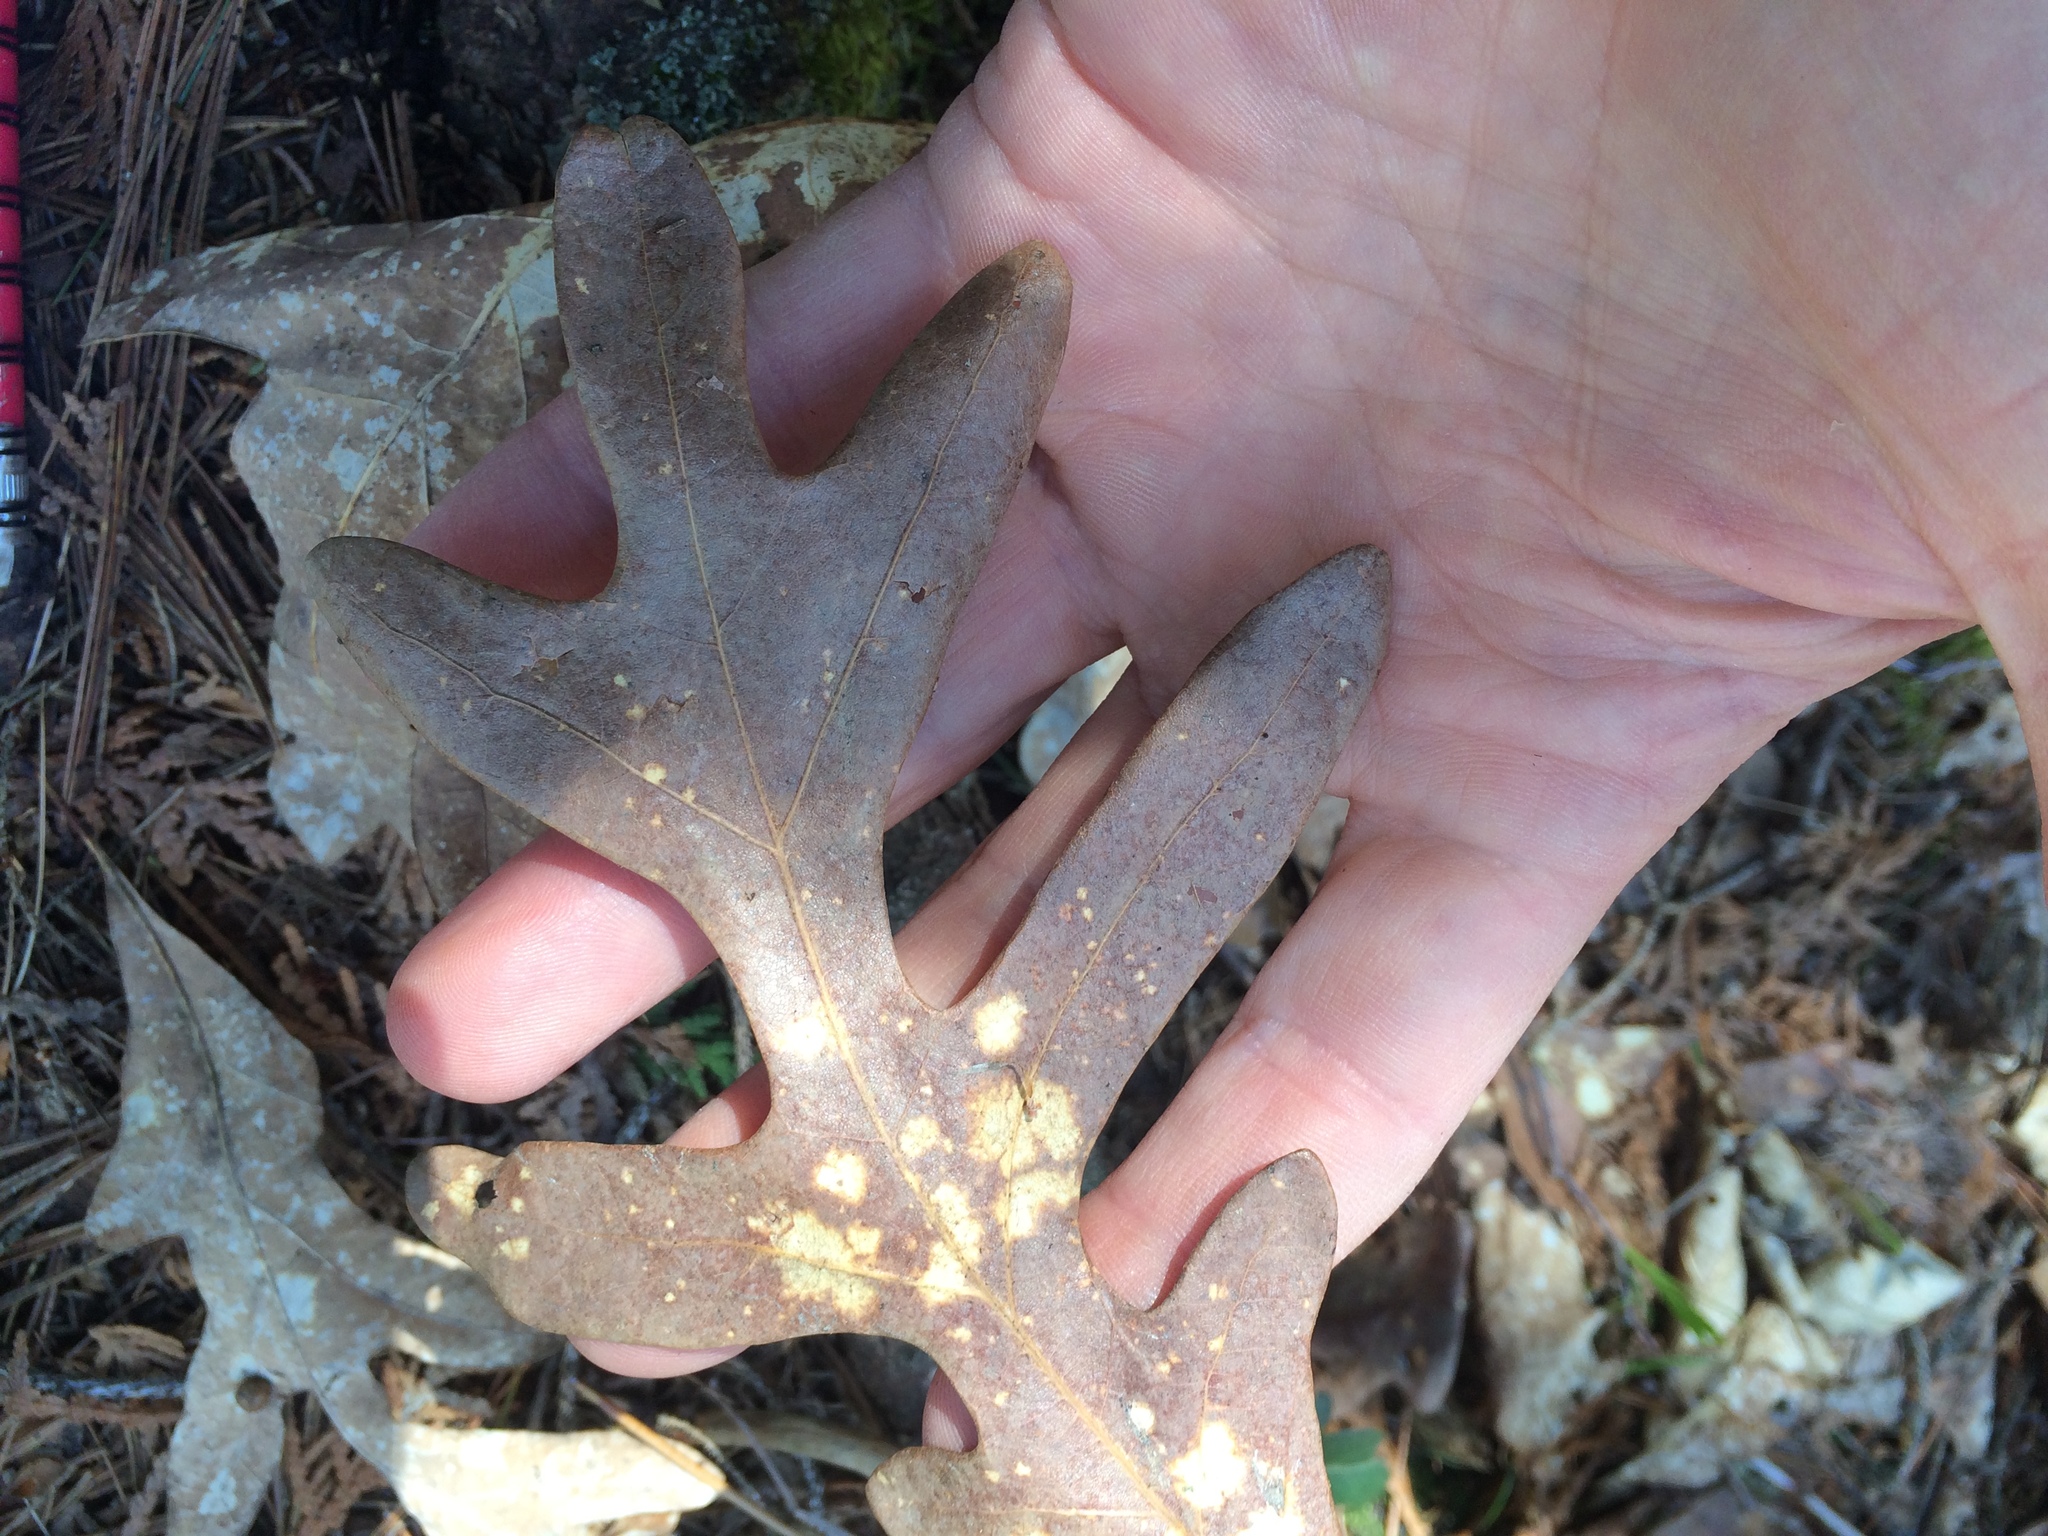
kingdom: Plantae
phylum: Tracheophyta
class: Magnoliopsida
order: Fagales
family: Fagaceae
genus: Quercus
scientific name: Quercus alba
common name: White oak
